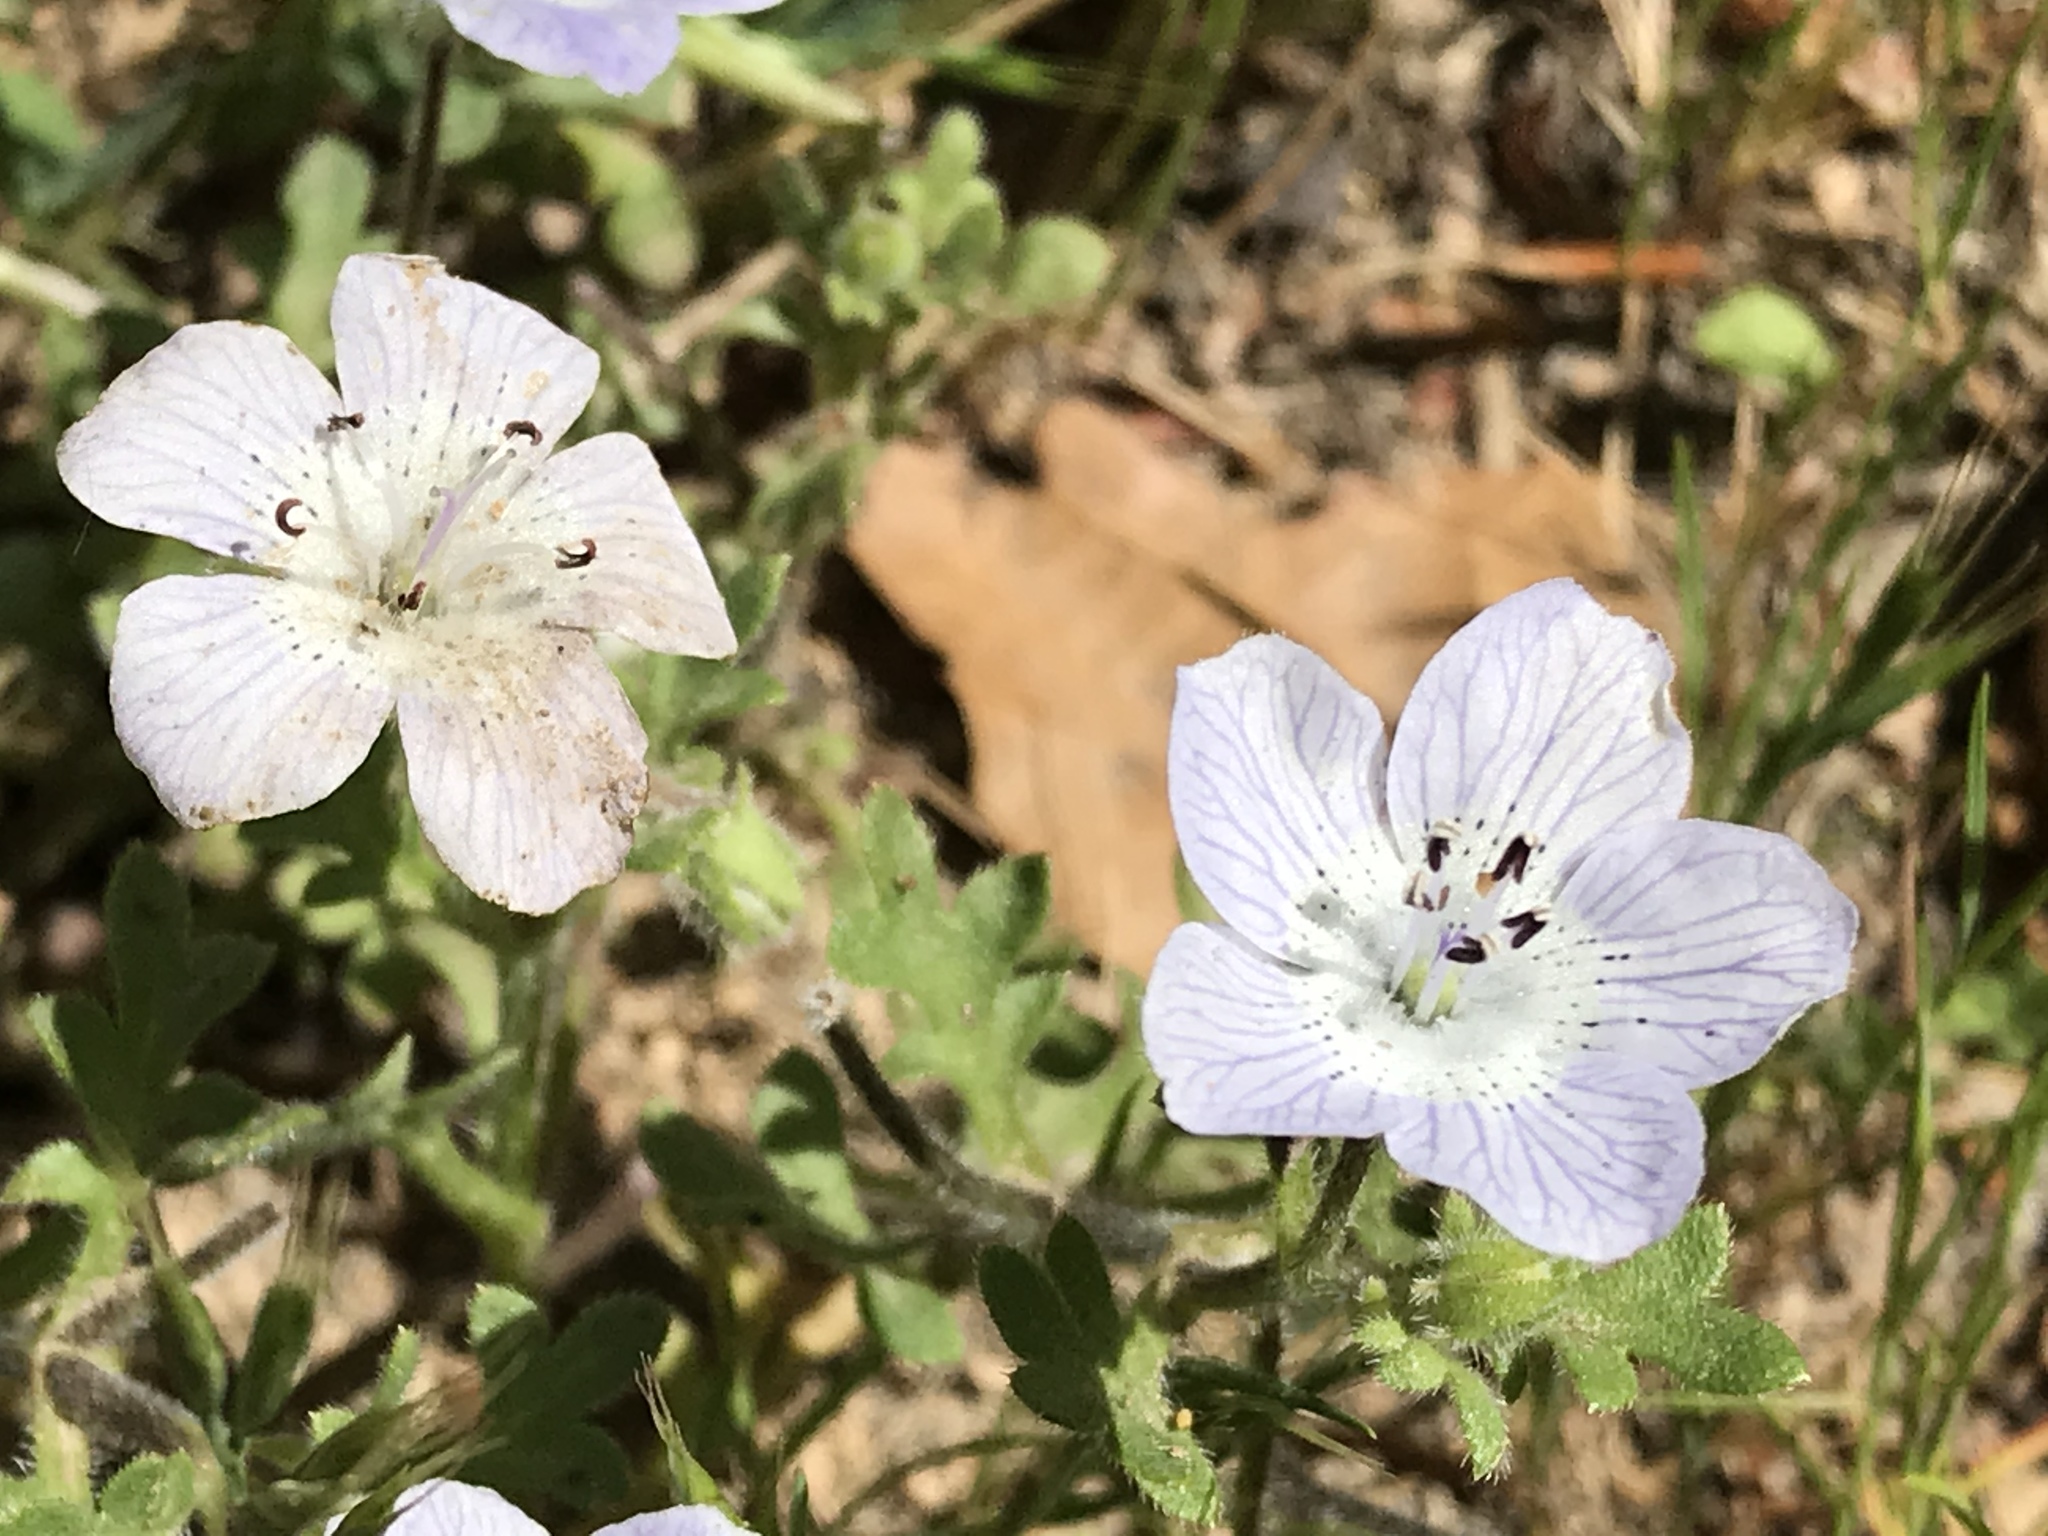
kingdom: Plantae
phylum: Tracheophyta
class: Magnoliopsida
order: Boraginales
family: Hydrophyllaceae
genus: Nemophila
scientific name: Nemophila menziesii
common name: Baby's-blue-eyes
